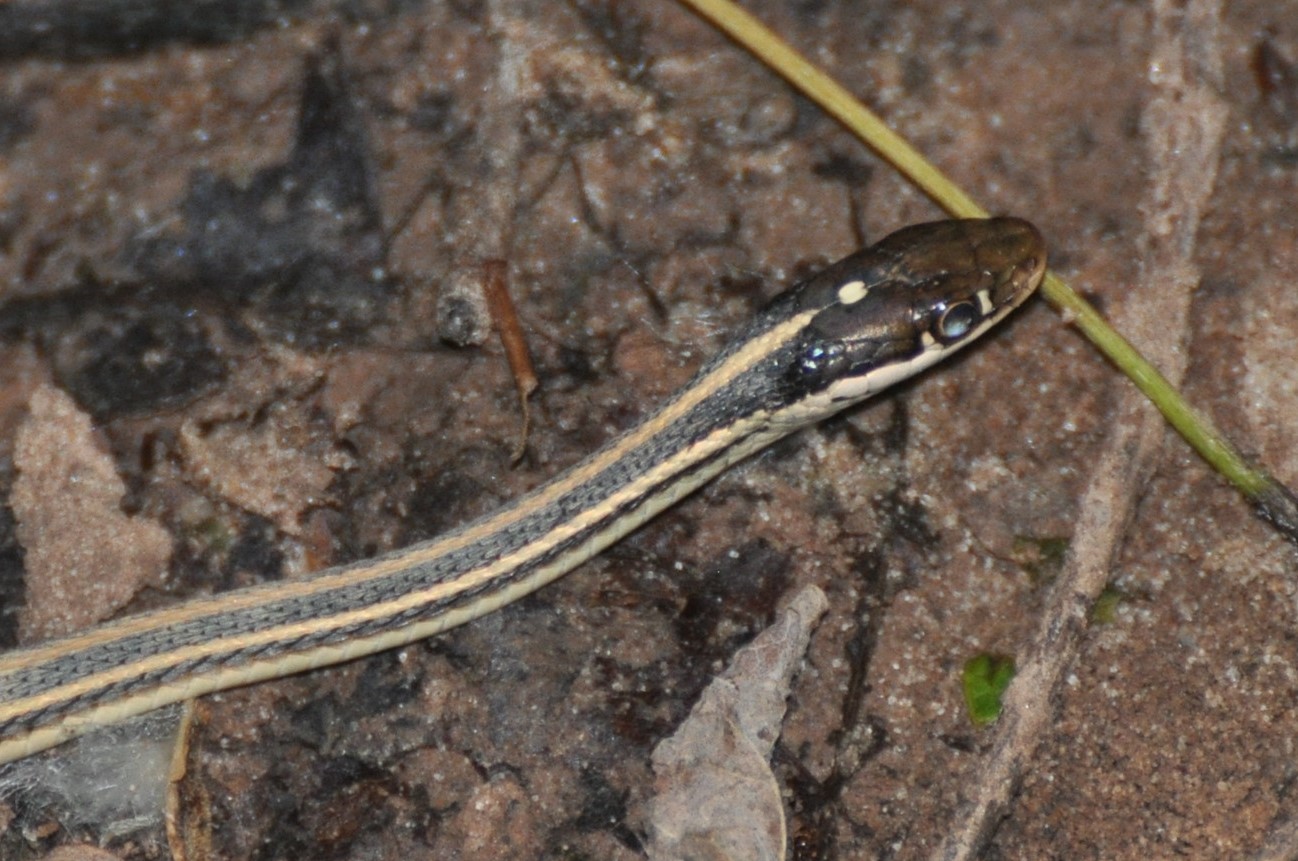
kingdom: Animalia
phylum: Chordata
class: Squamata
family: Colubridae
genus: Thamnophis
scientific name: Thamnophis proximus
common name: Western ribbon snake
